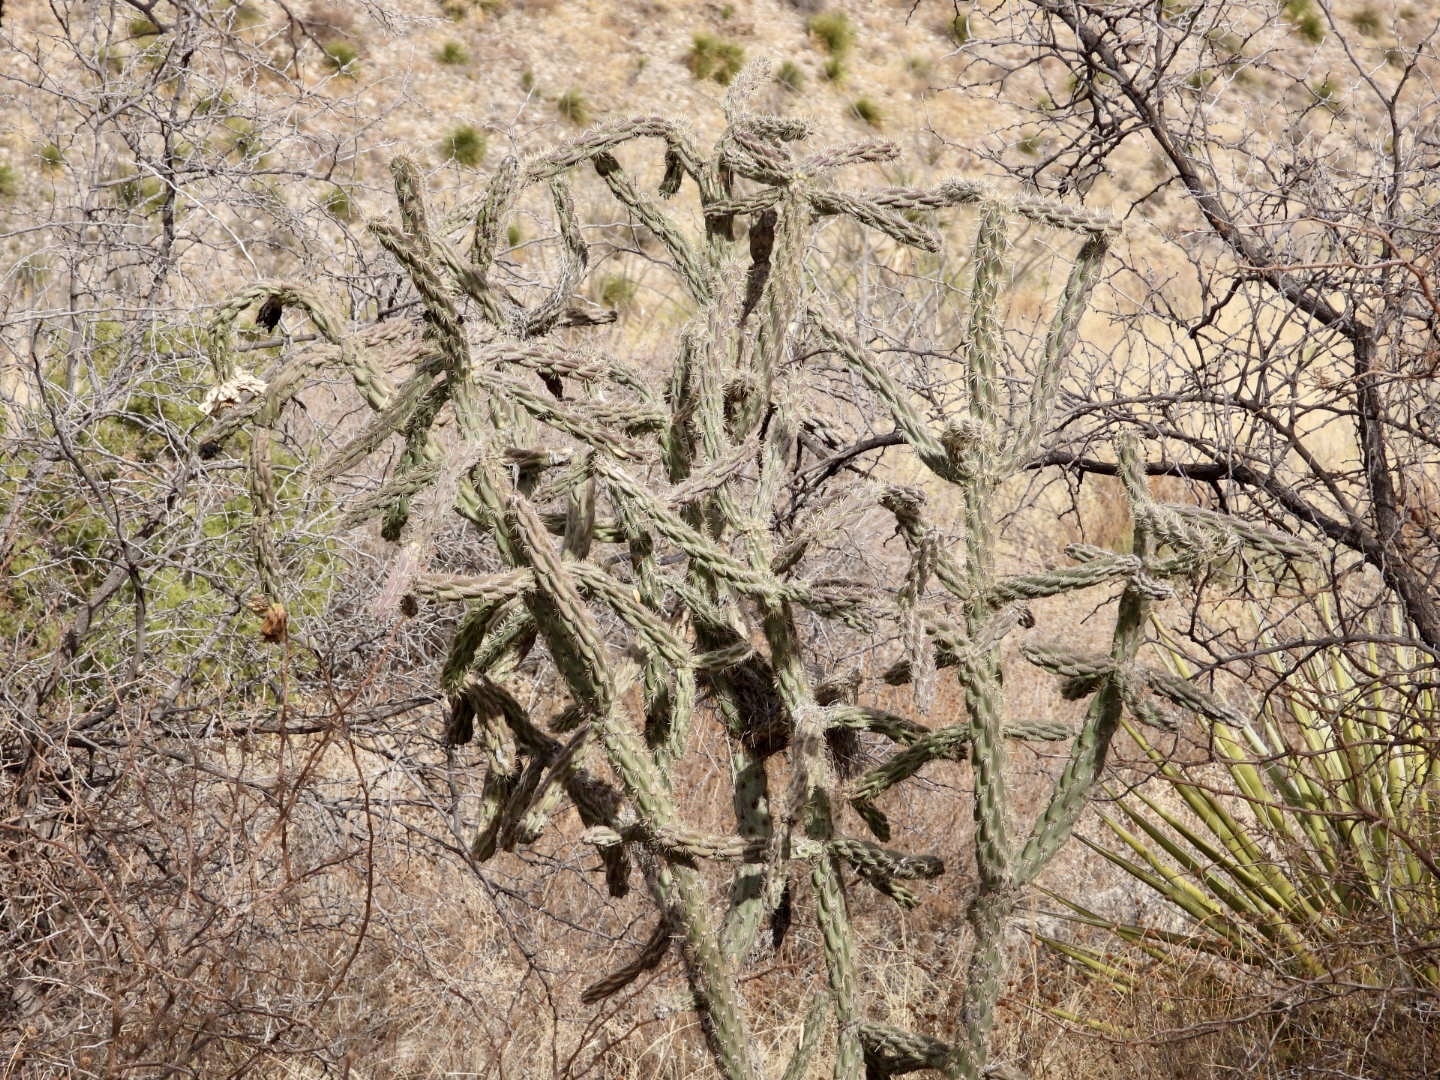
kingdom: Plantae
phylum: Tracheophyta
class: Magnoliopsida
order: Caryophyllales
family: Cactaceae
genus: Cylindropuntia
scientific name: Cylindropuntia imbricata
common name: Candelabrum cactus
